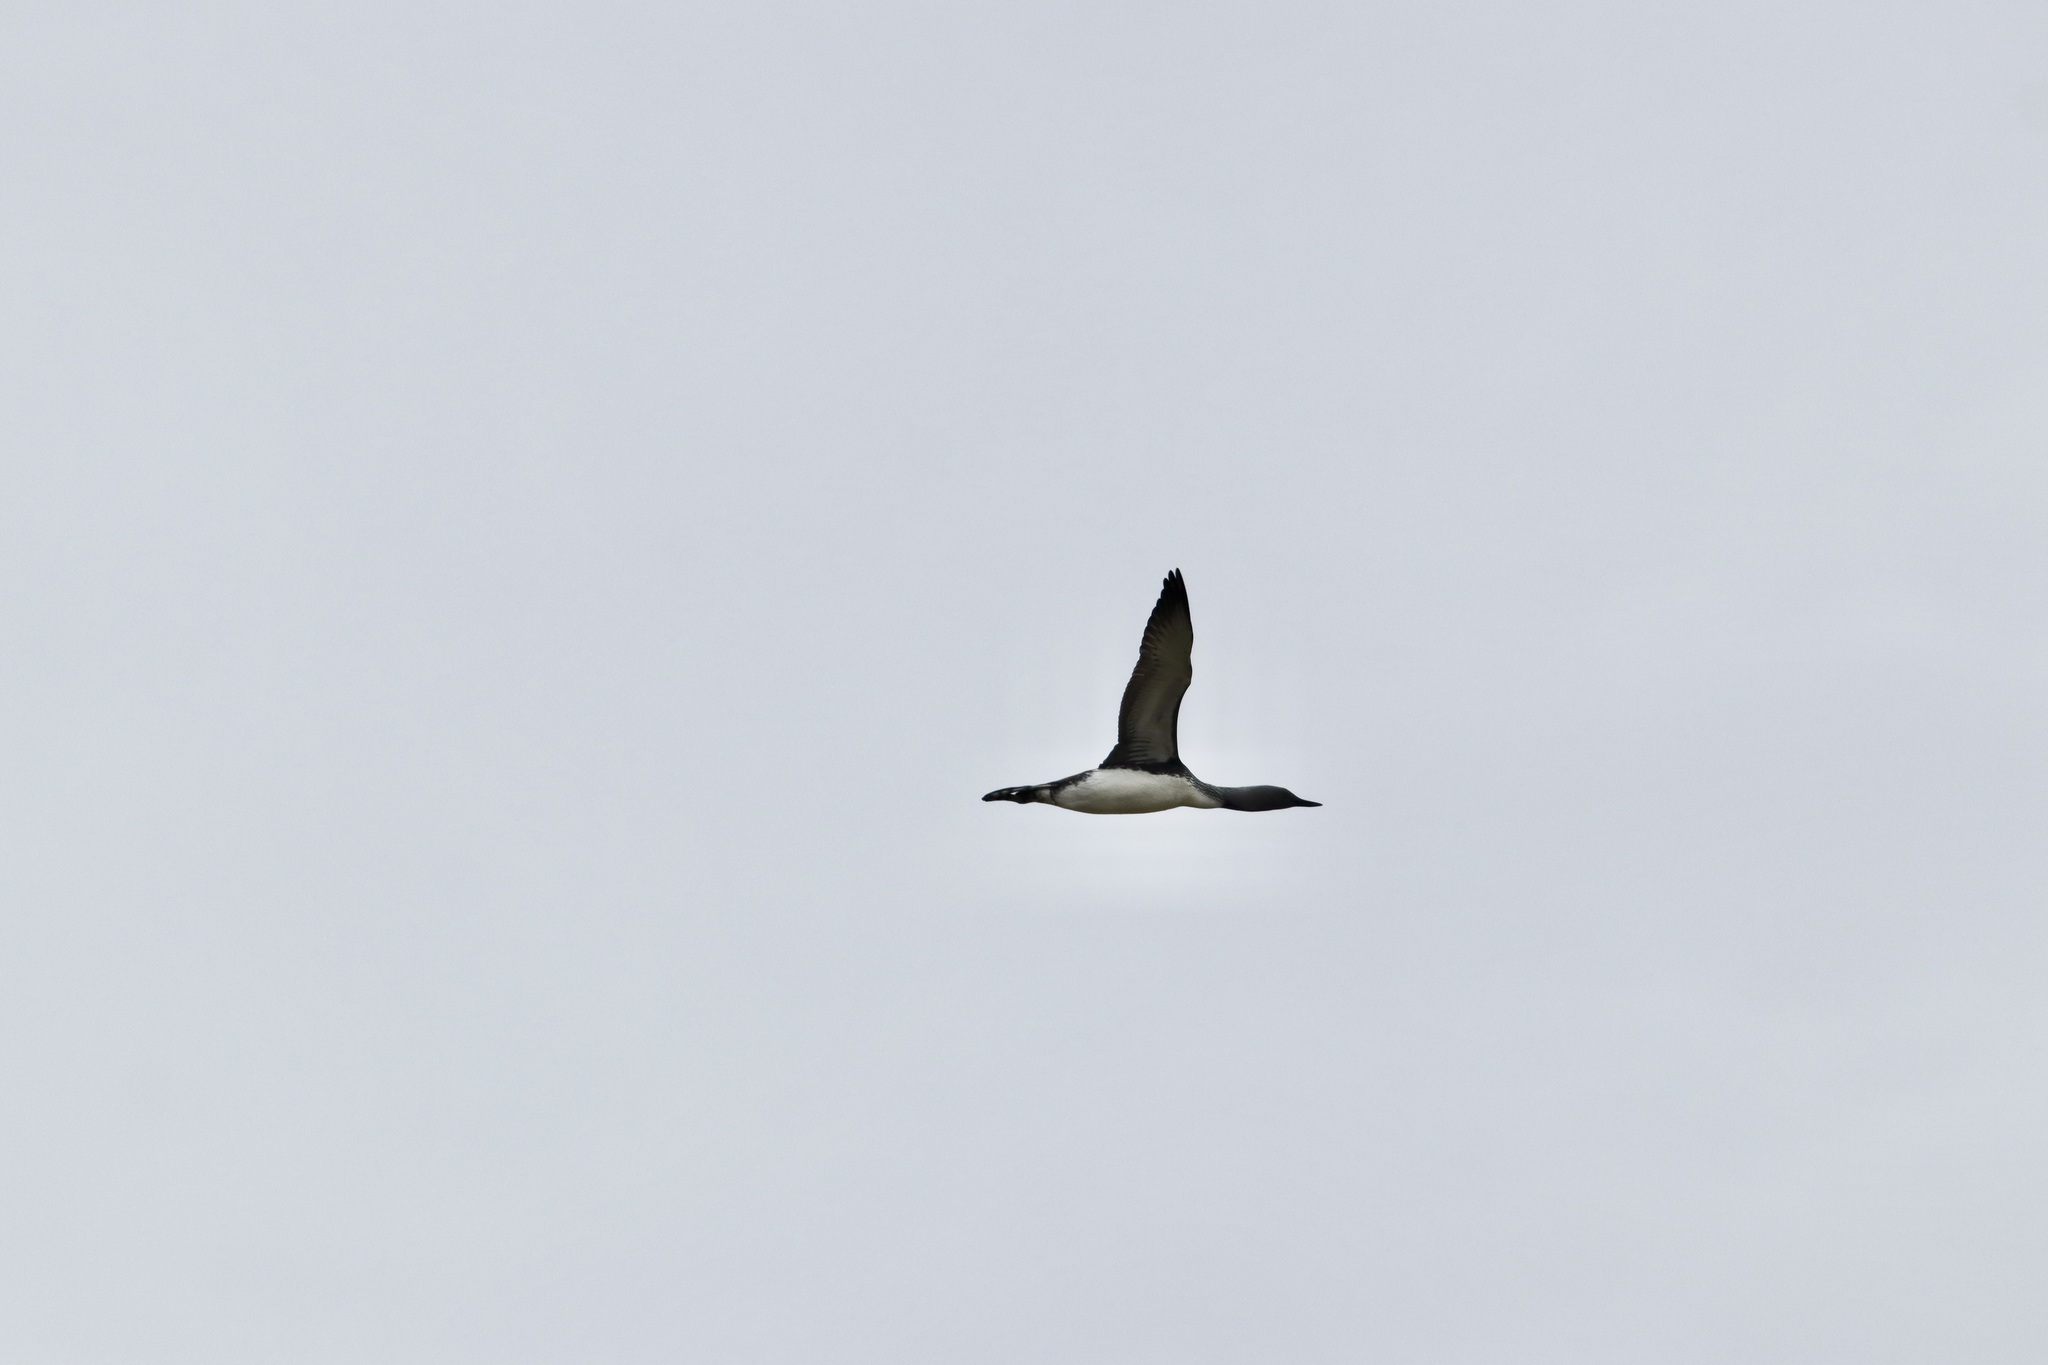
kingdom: Animalia
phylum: Chordata
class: Aves
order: Gaviiformes
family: Gaviidae
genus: Gavia
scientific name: Gavia stellata
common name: Red-throated loon
